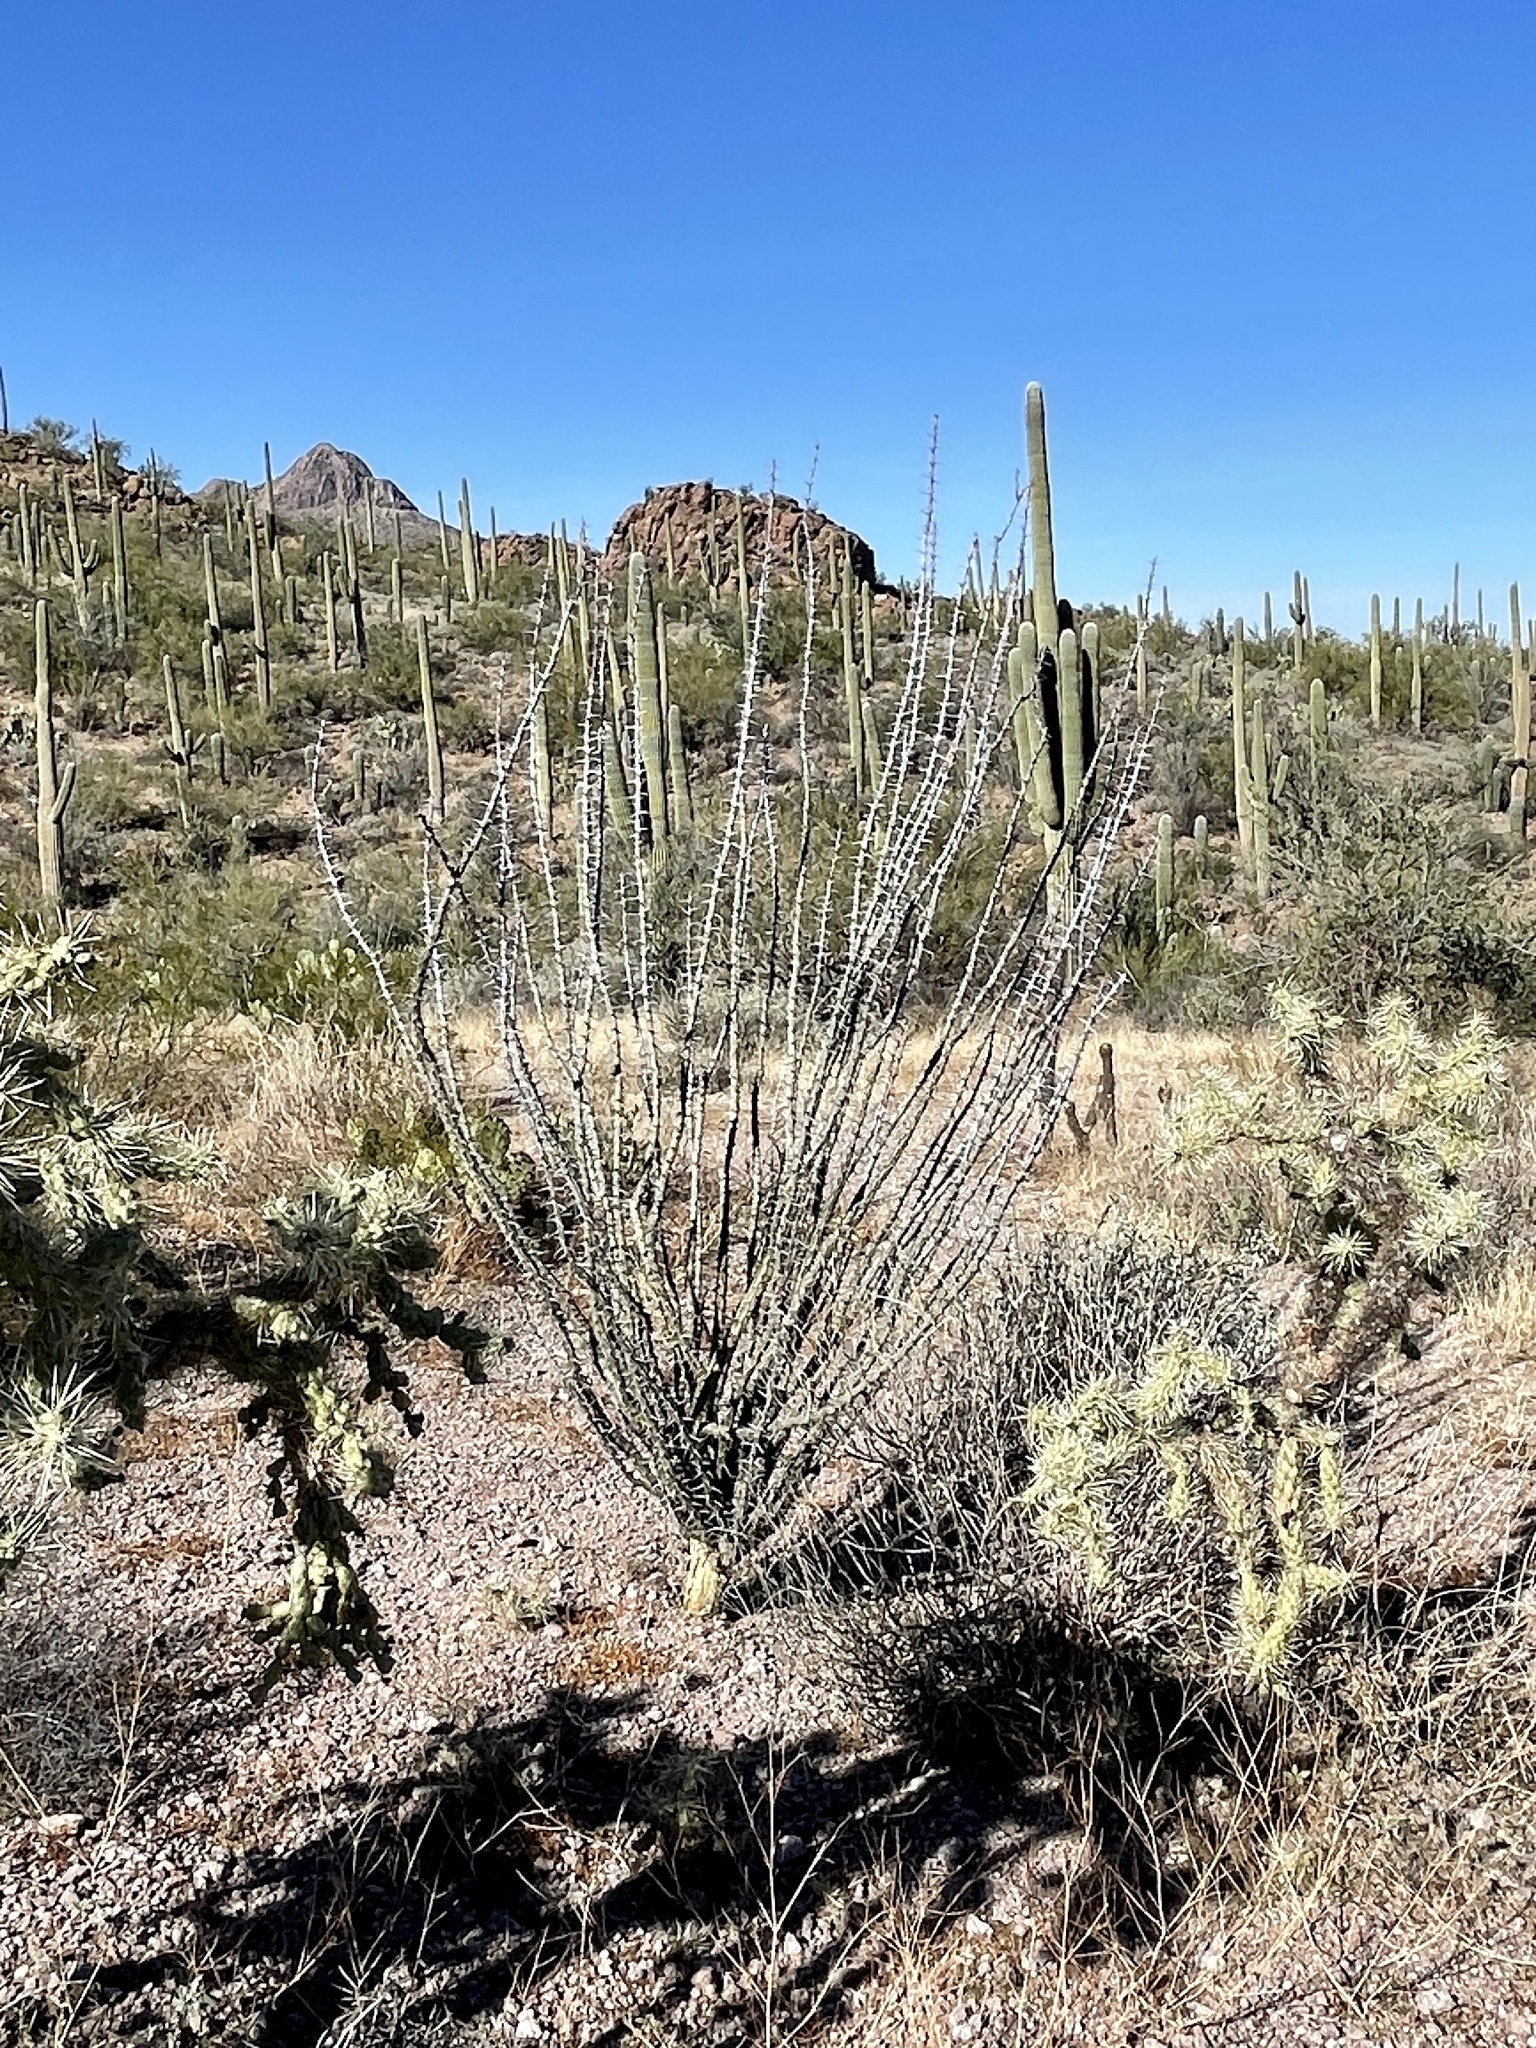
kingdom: Plantae
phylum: Tracheophyta
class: Magnoliopsida
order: Ericales
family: Fouquieriaceae
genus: Fouquieria
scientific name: Fouquieria splendens
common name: Vine-cactus
